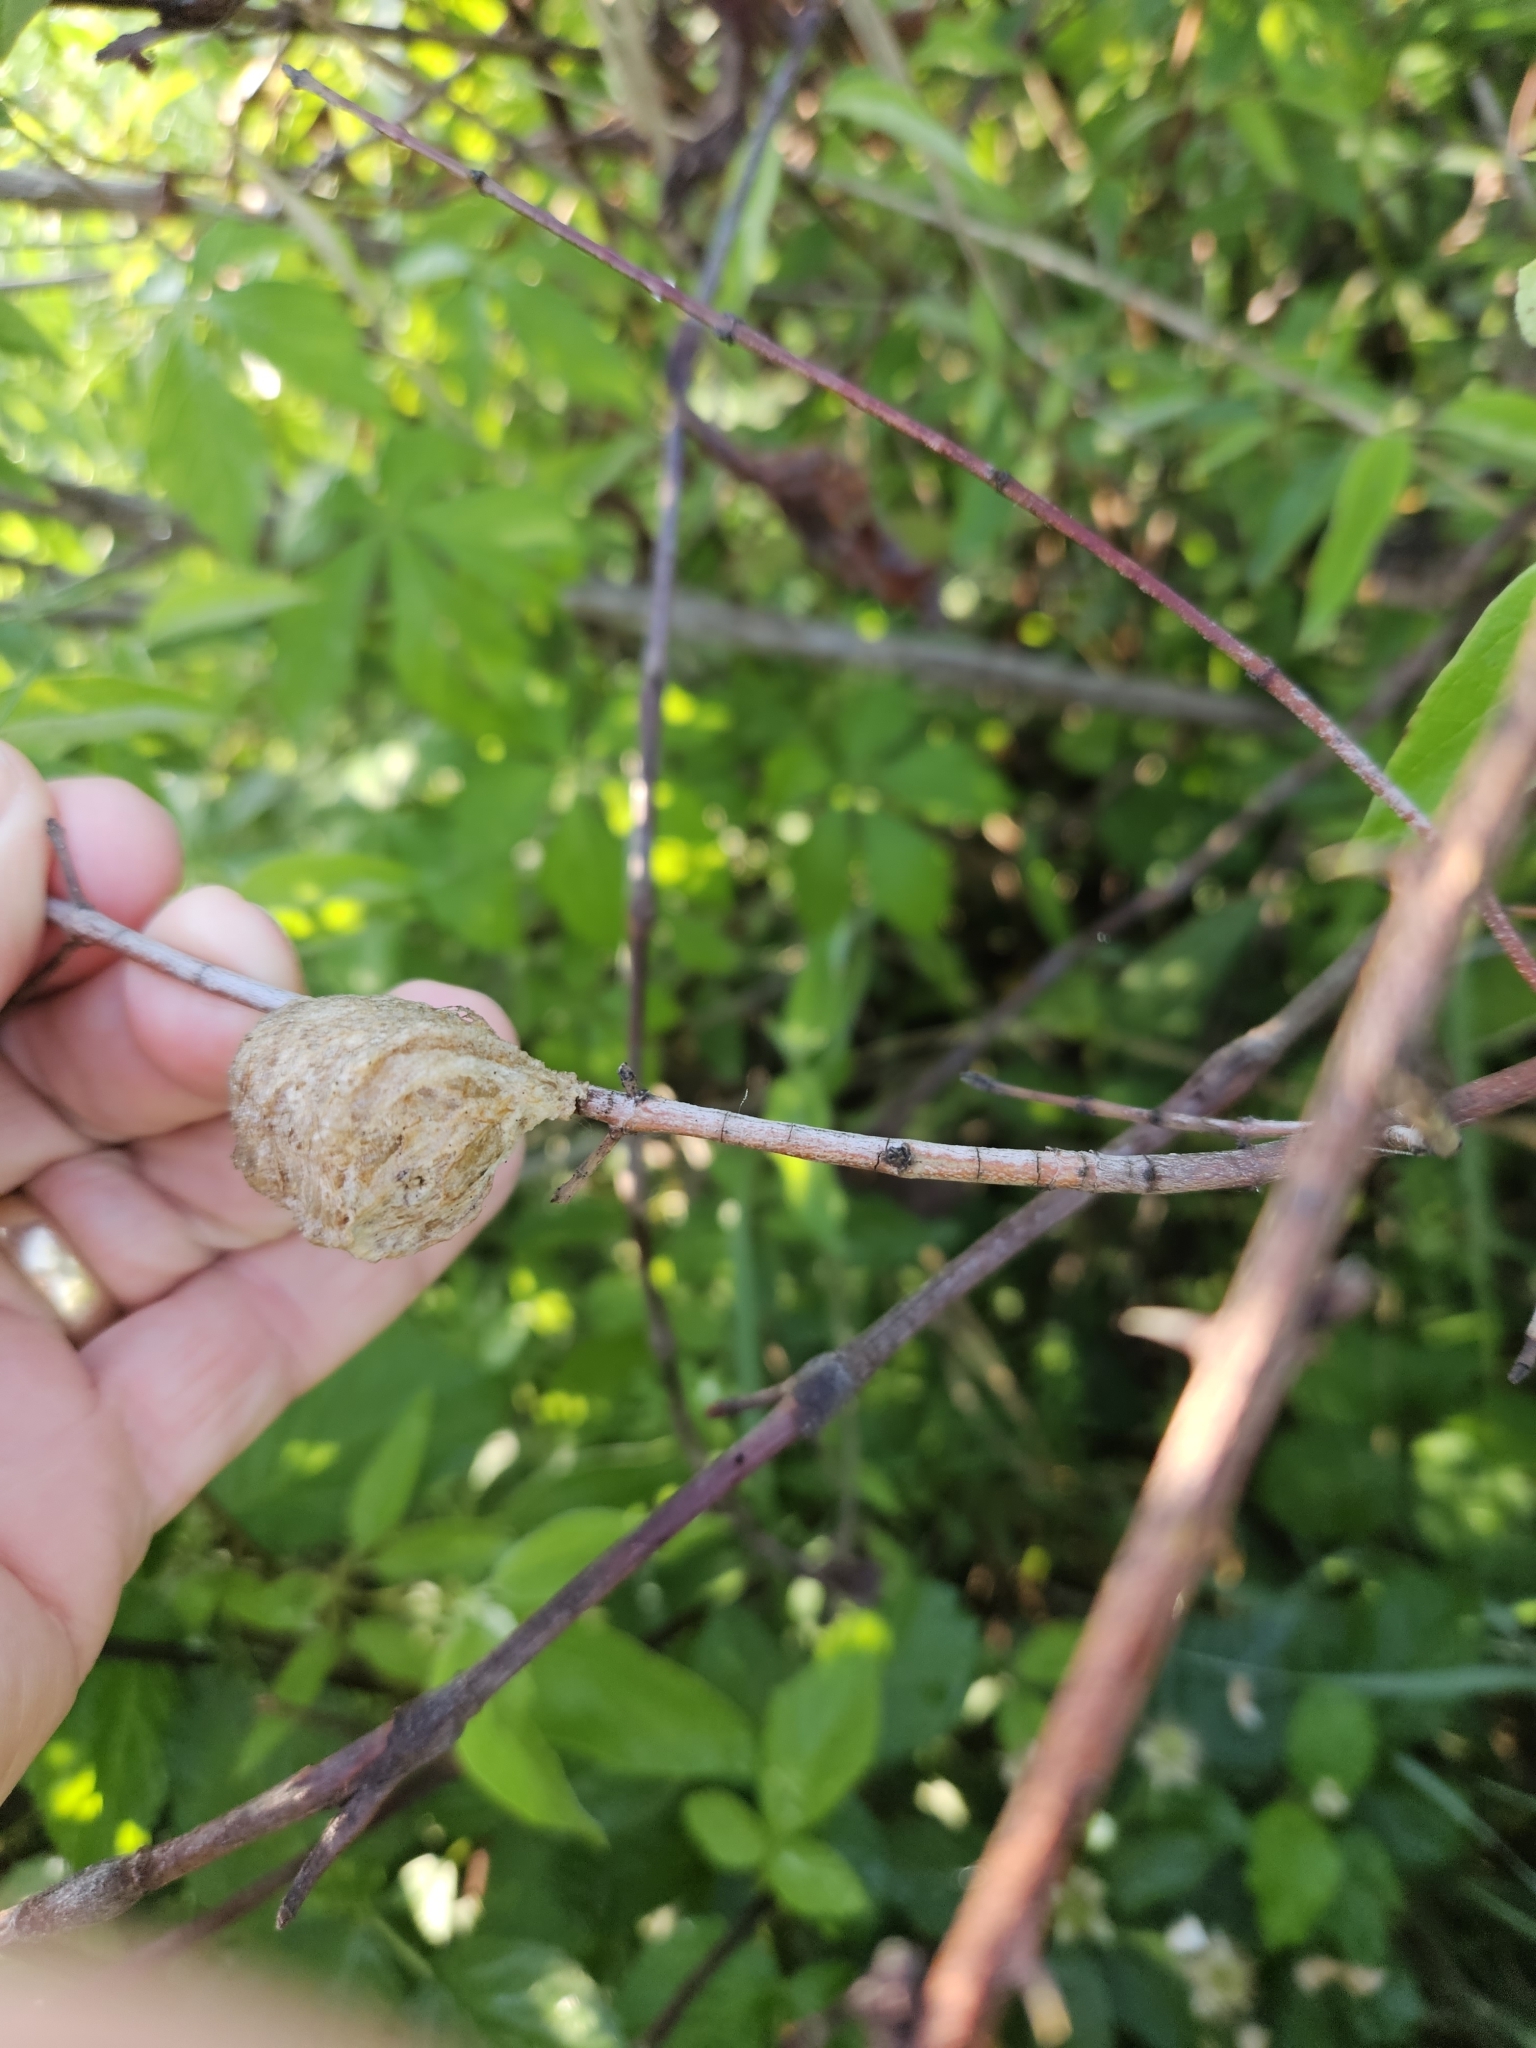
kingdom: Animalia
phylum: Arthropoda
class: Insecta
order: Mantodea
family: Mantidae
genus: Tenodera
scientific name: Tenodera sinensis
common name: Chinese mantis
